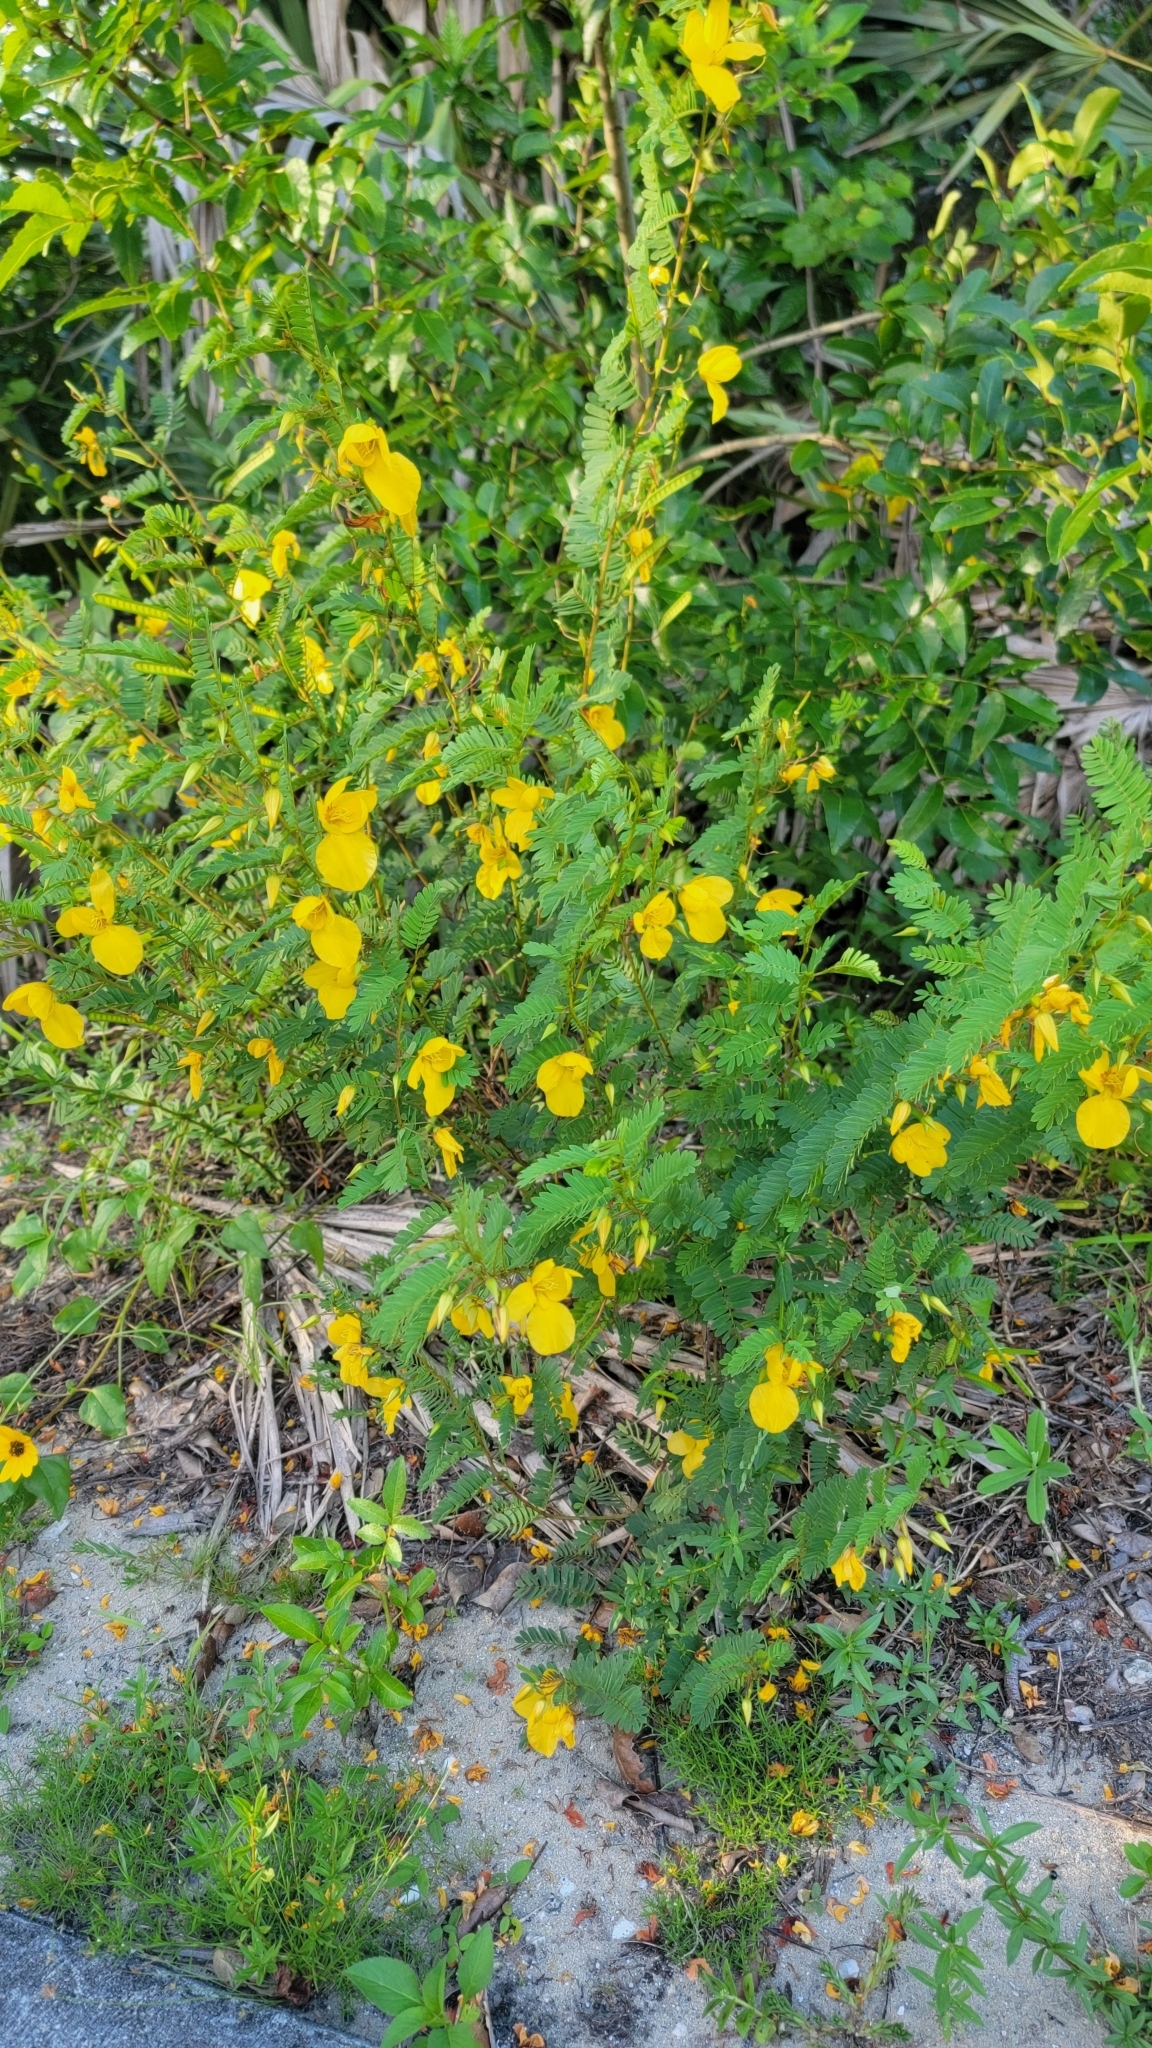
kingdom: Plantae
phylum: Tracheophyta
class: Magnoliopsida
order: Fabales
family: Fabaceae
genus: Chamaecrista
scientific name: Chamaecrista fasciculata
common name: Golden cassia
